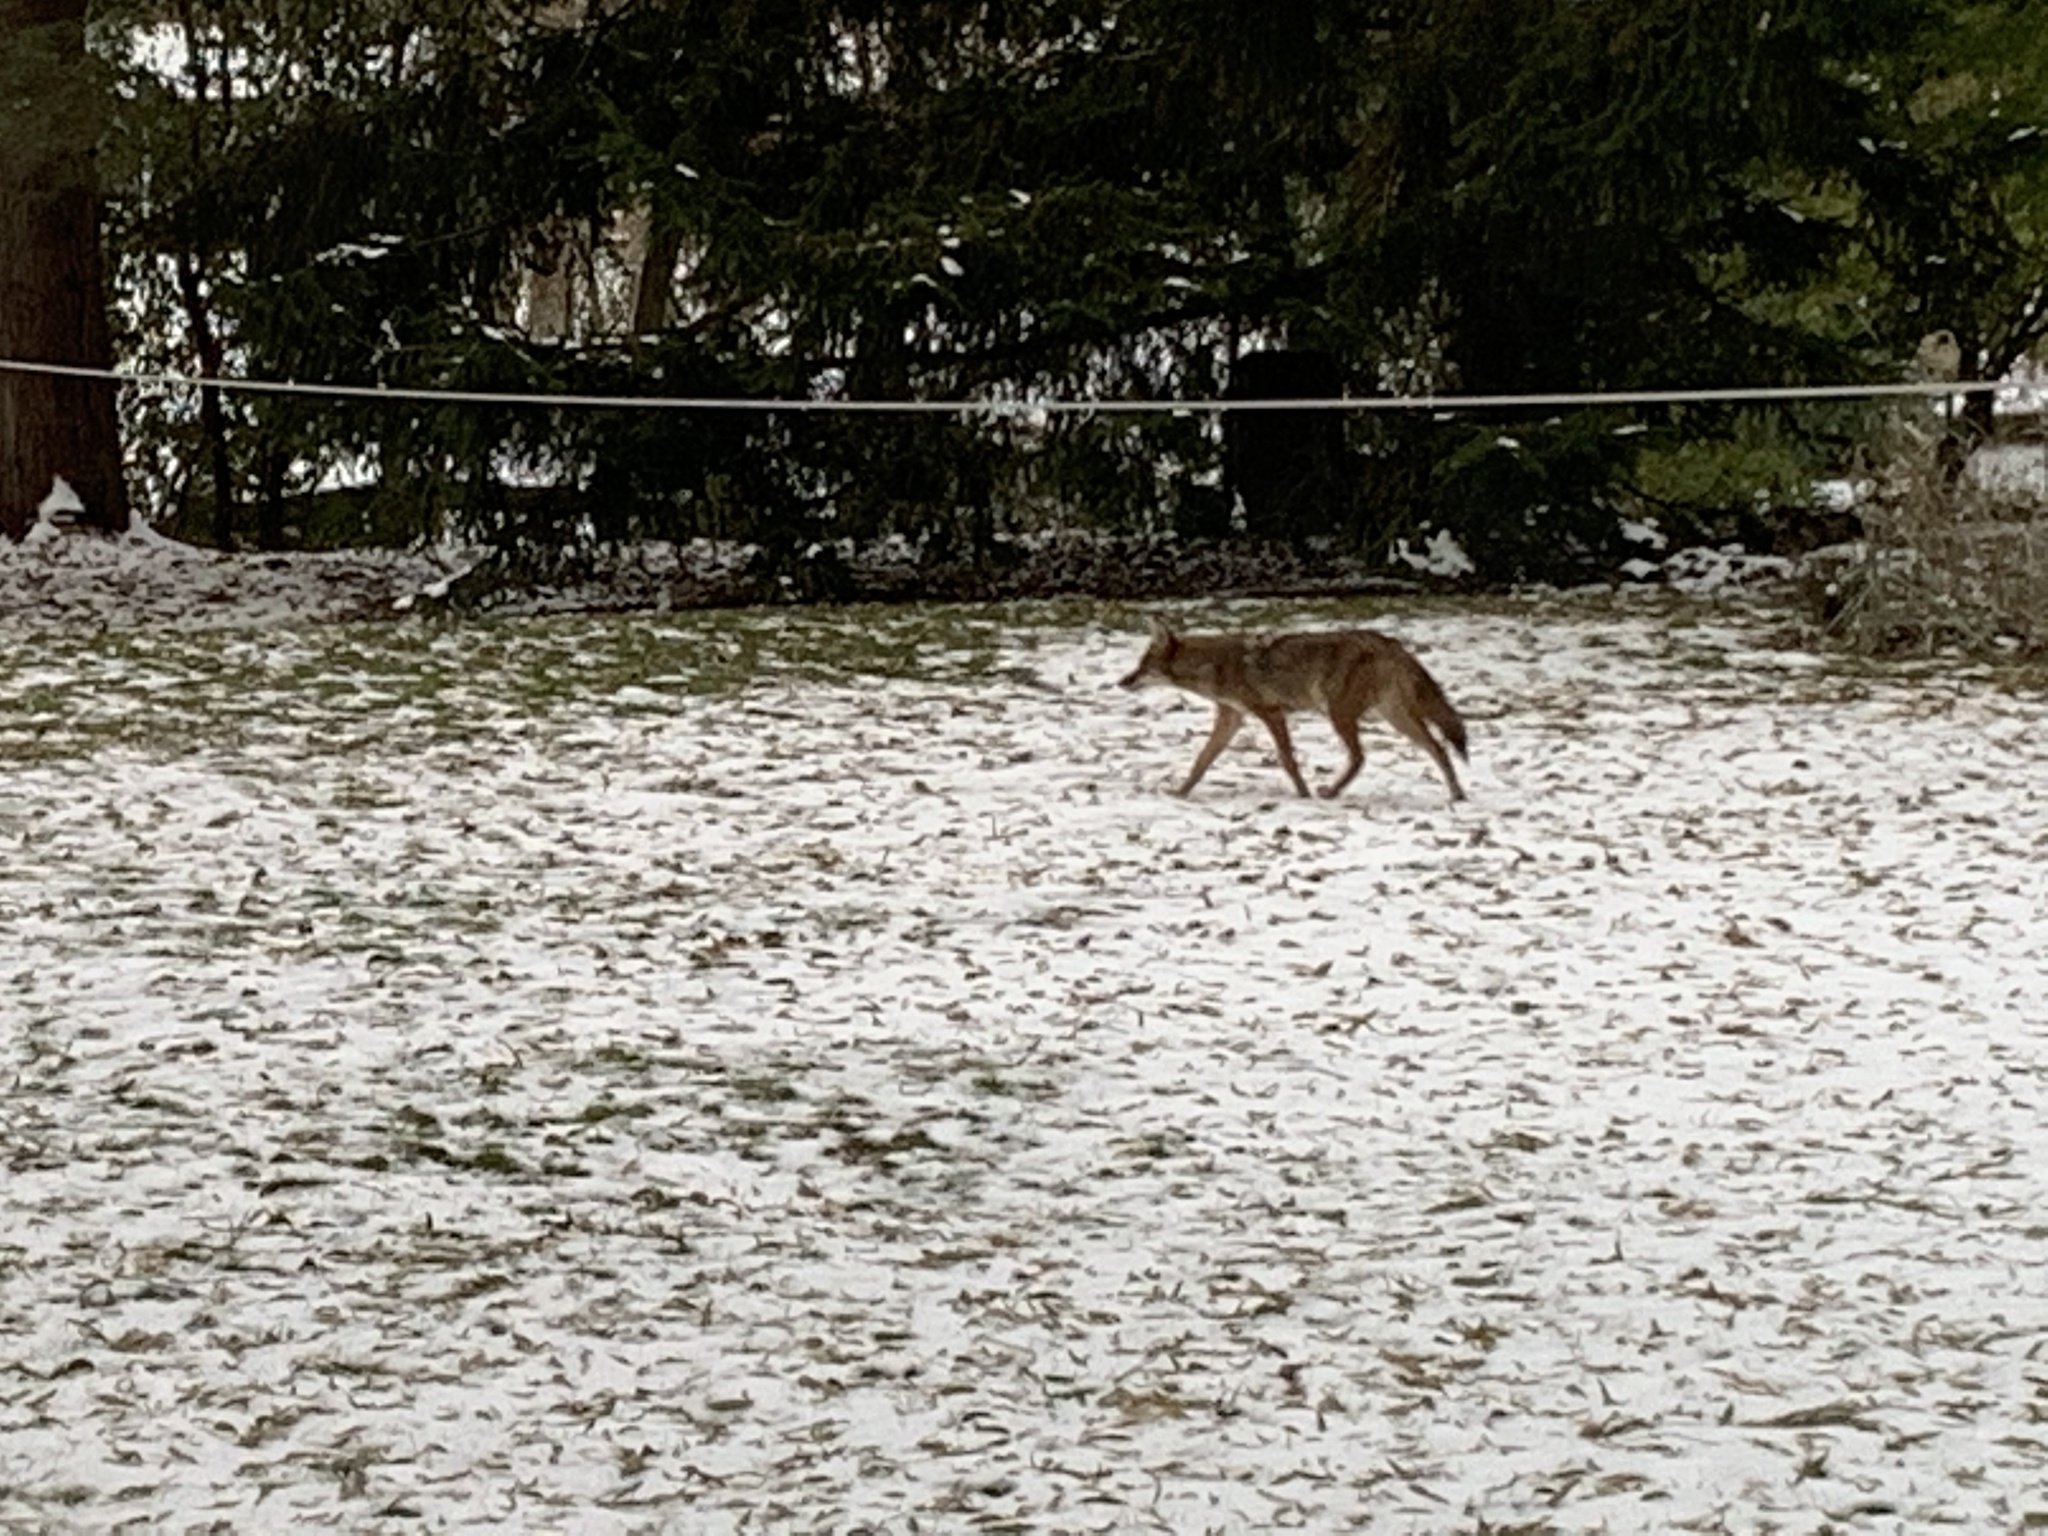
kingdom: Animalia
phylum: Chordata
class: Mammalia
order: Carnivora
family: Canidae
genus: Canis
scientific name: Canis latrans
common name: Coyote
